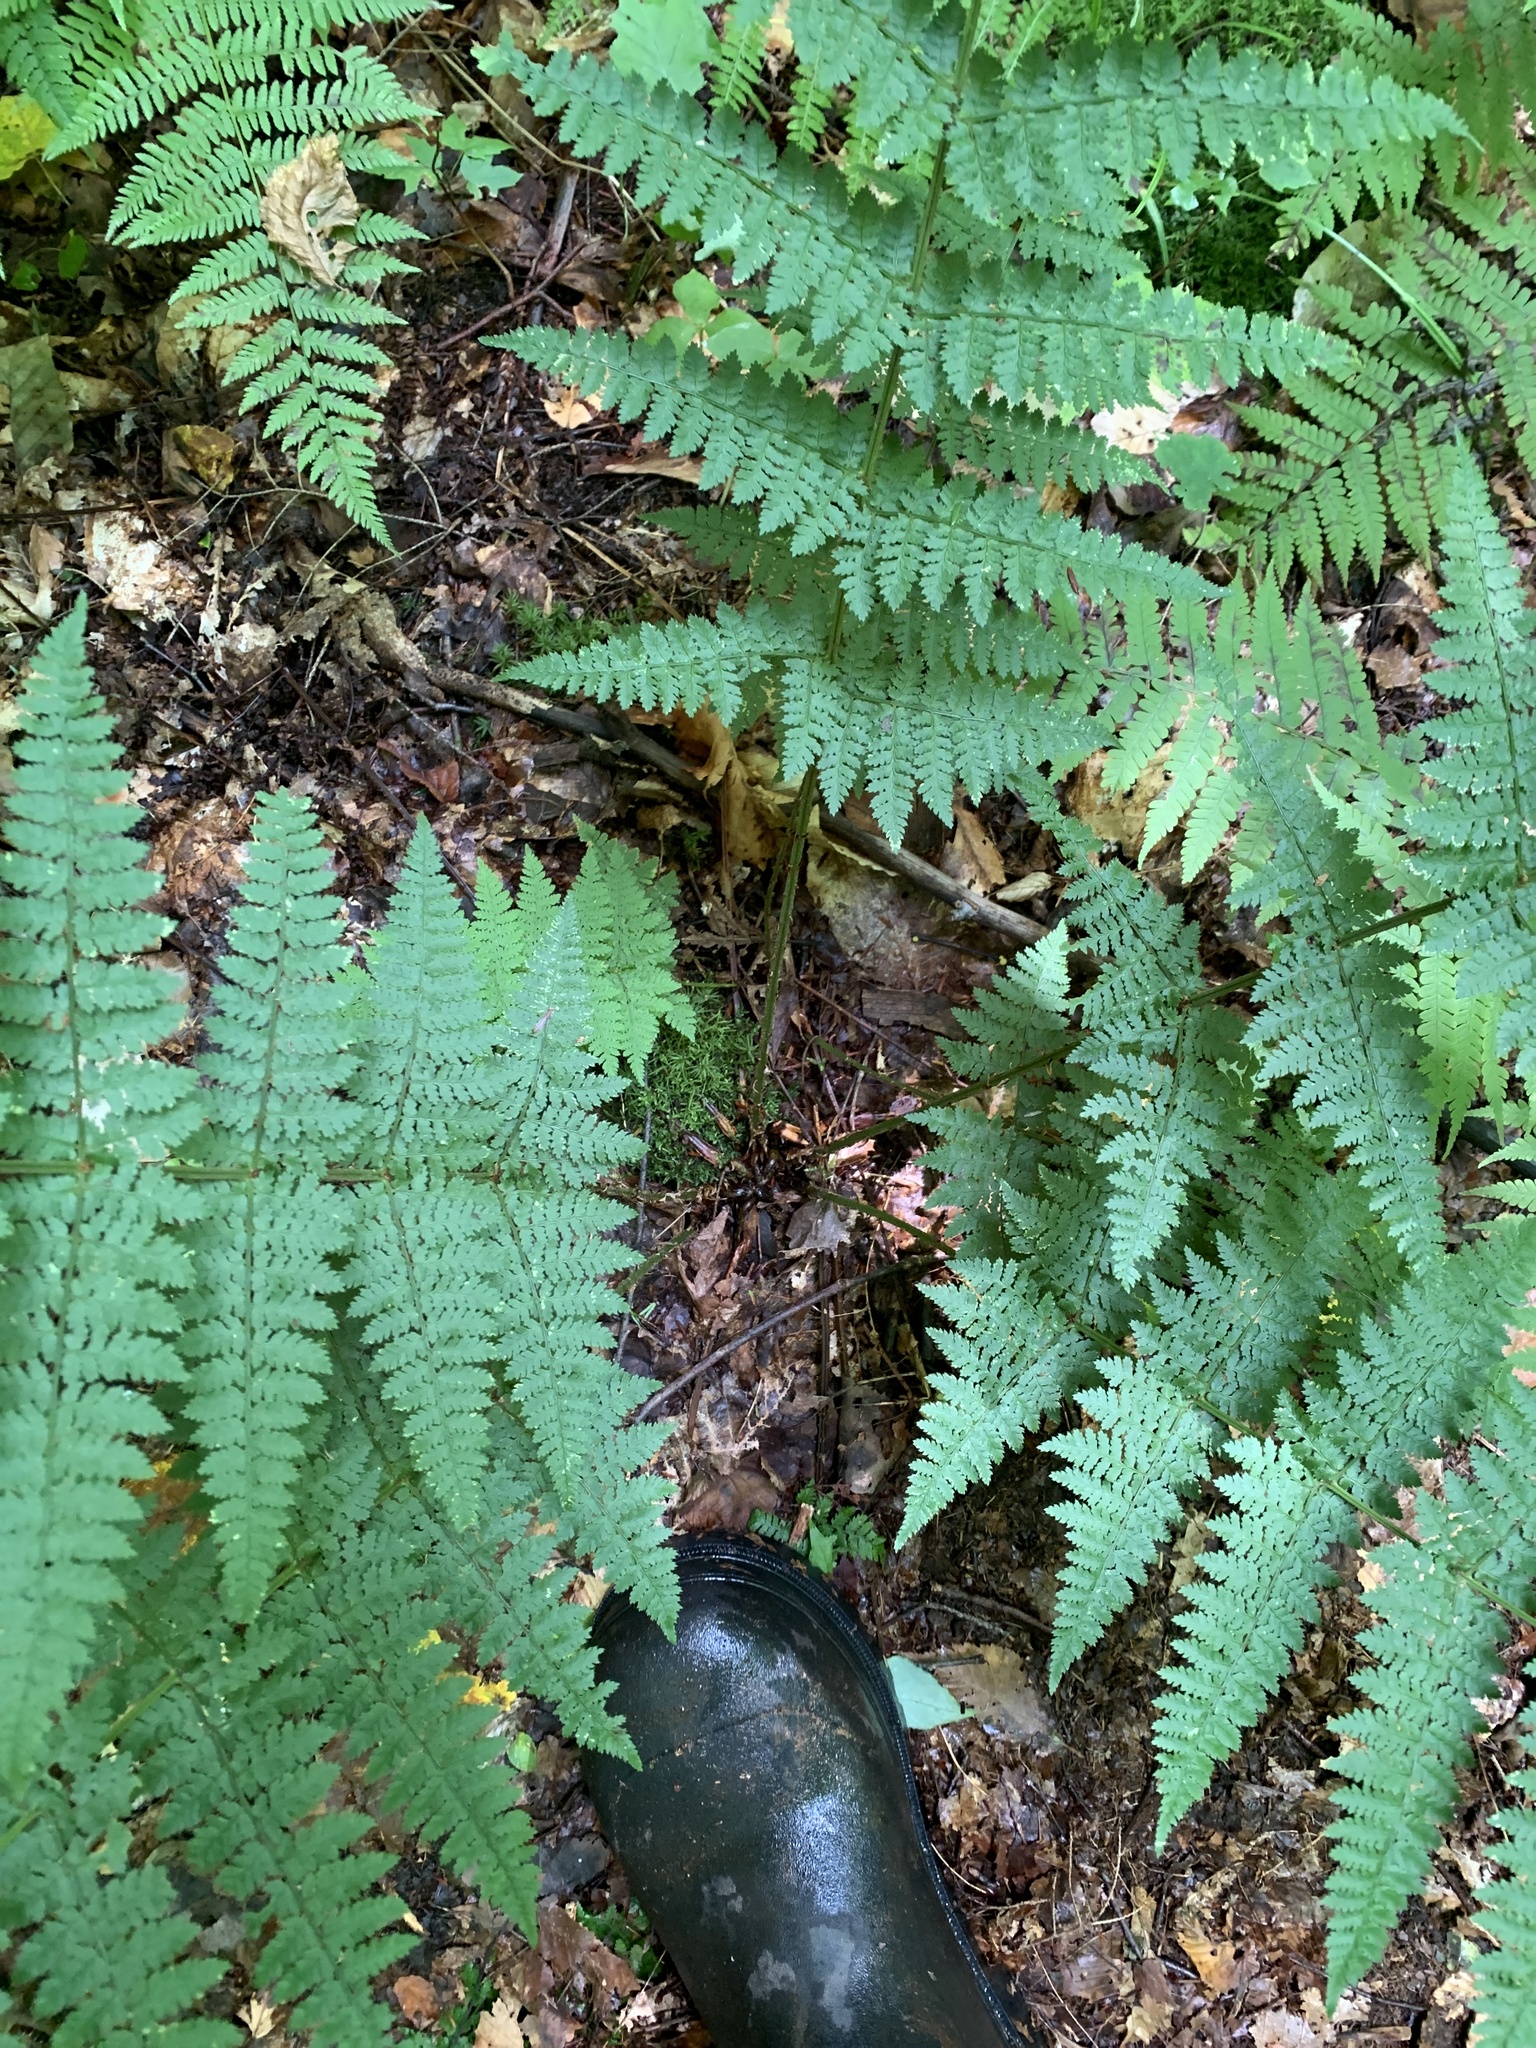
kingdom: Plantae
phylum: Tracheophyta
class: Polypodiopsida
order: Polypodiales
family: Dryopteridaceae
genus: Dryopteris
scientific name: Dryopteris intermedia
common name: Evergreen wood fern
